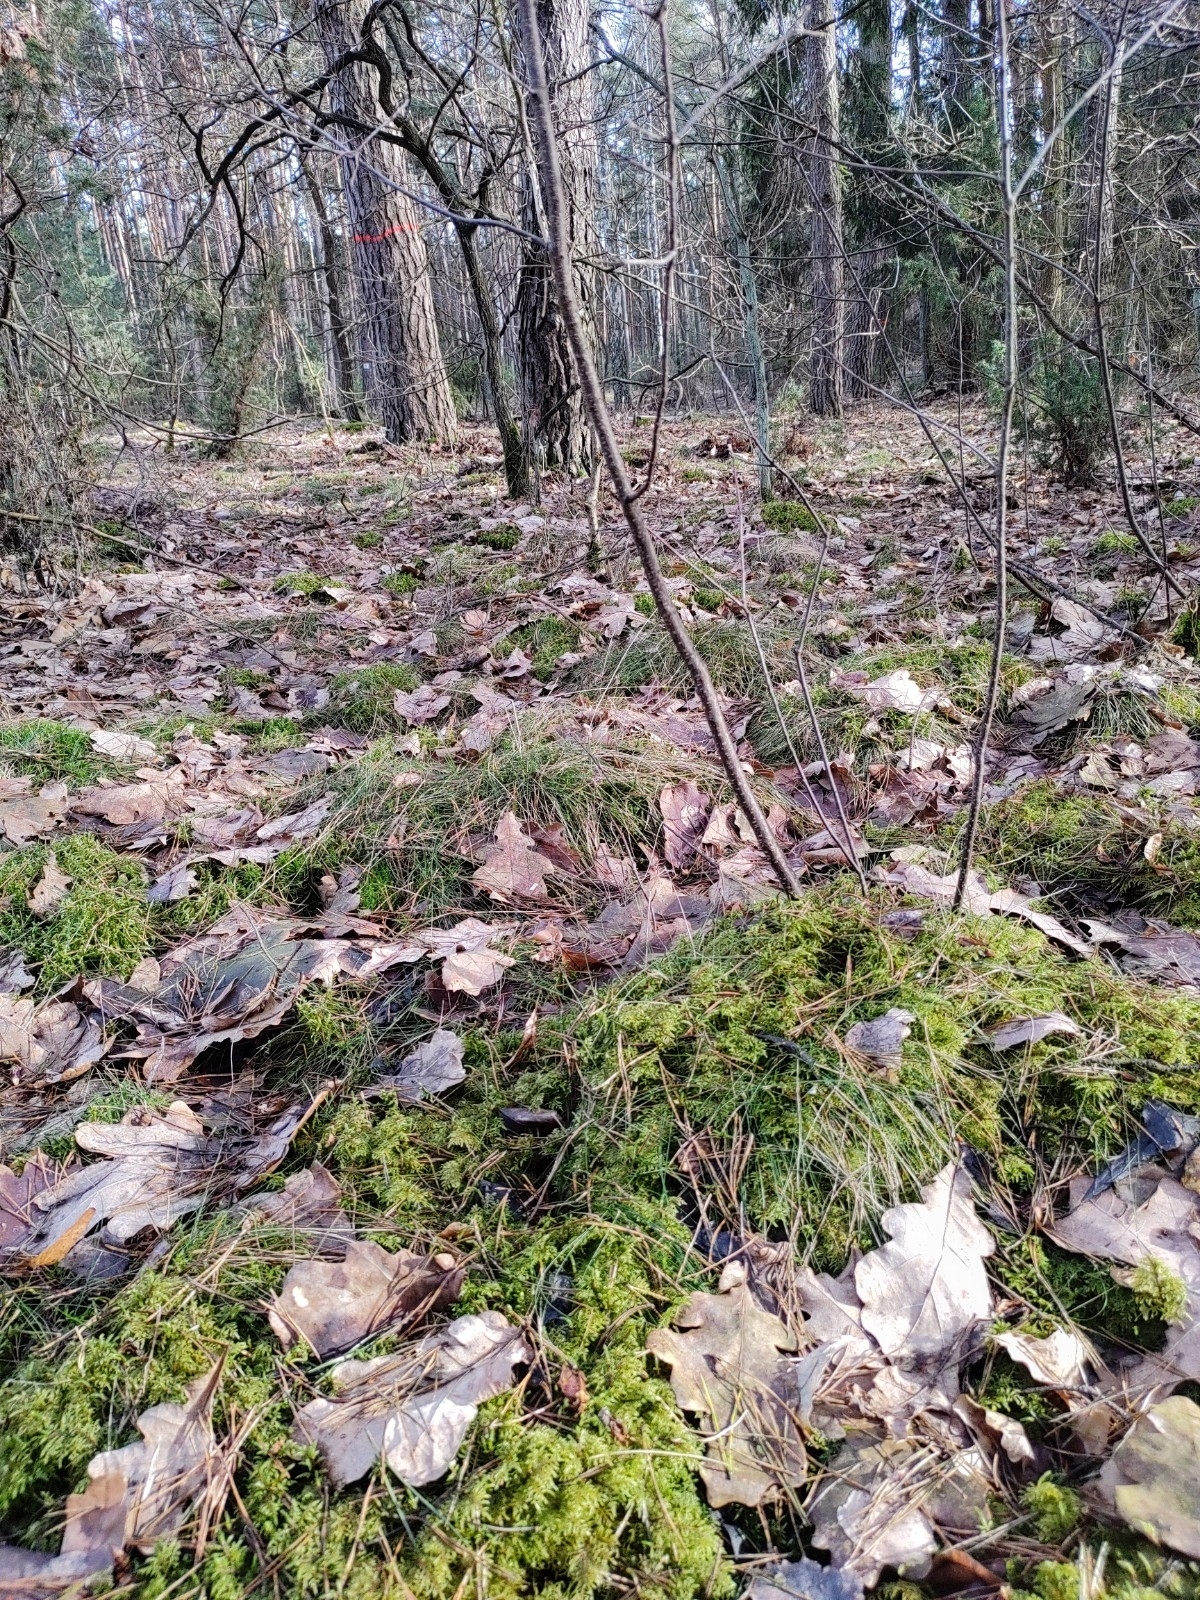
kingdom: Plantae
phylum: Bryophyta
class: Bryopsida
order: Hypnales
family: Hylocomiaceae
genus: Hylocomium
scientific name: Hylocomium splendens
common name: Stairstep moss
